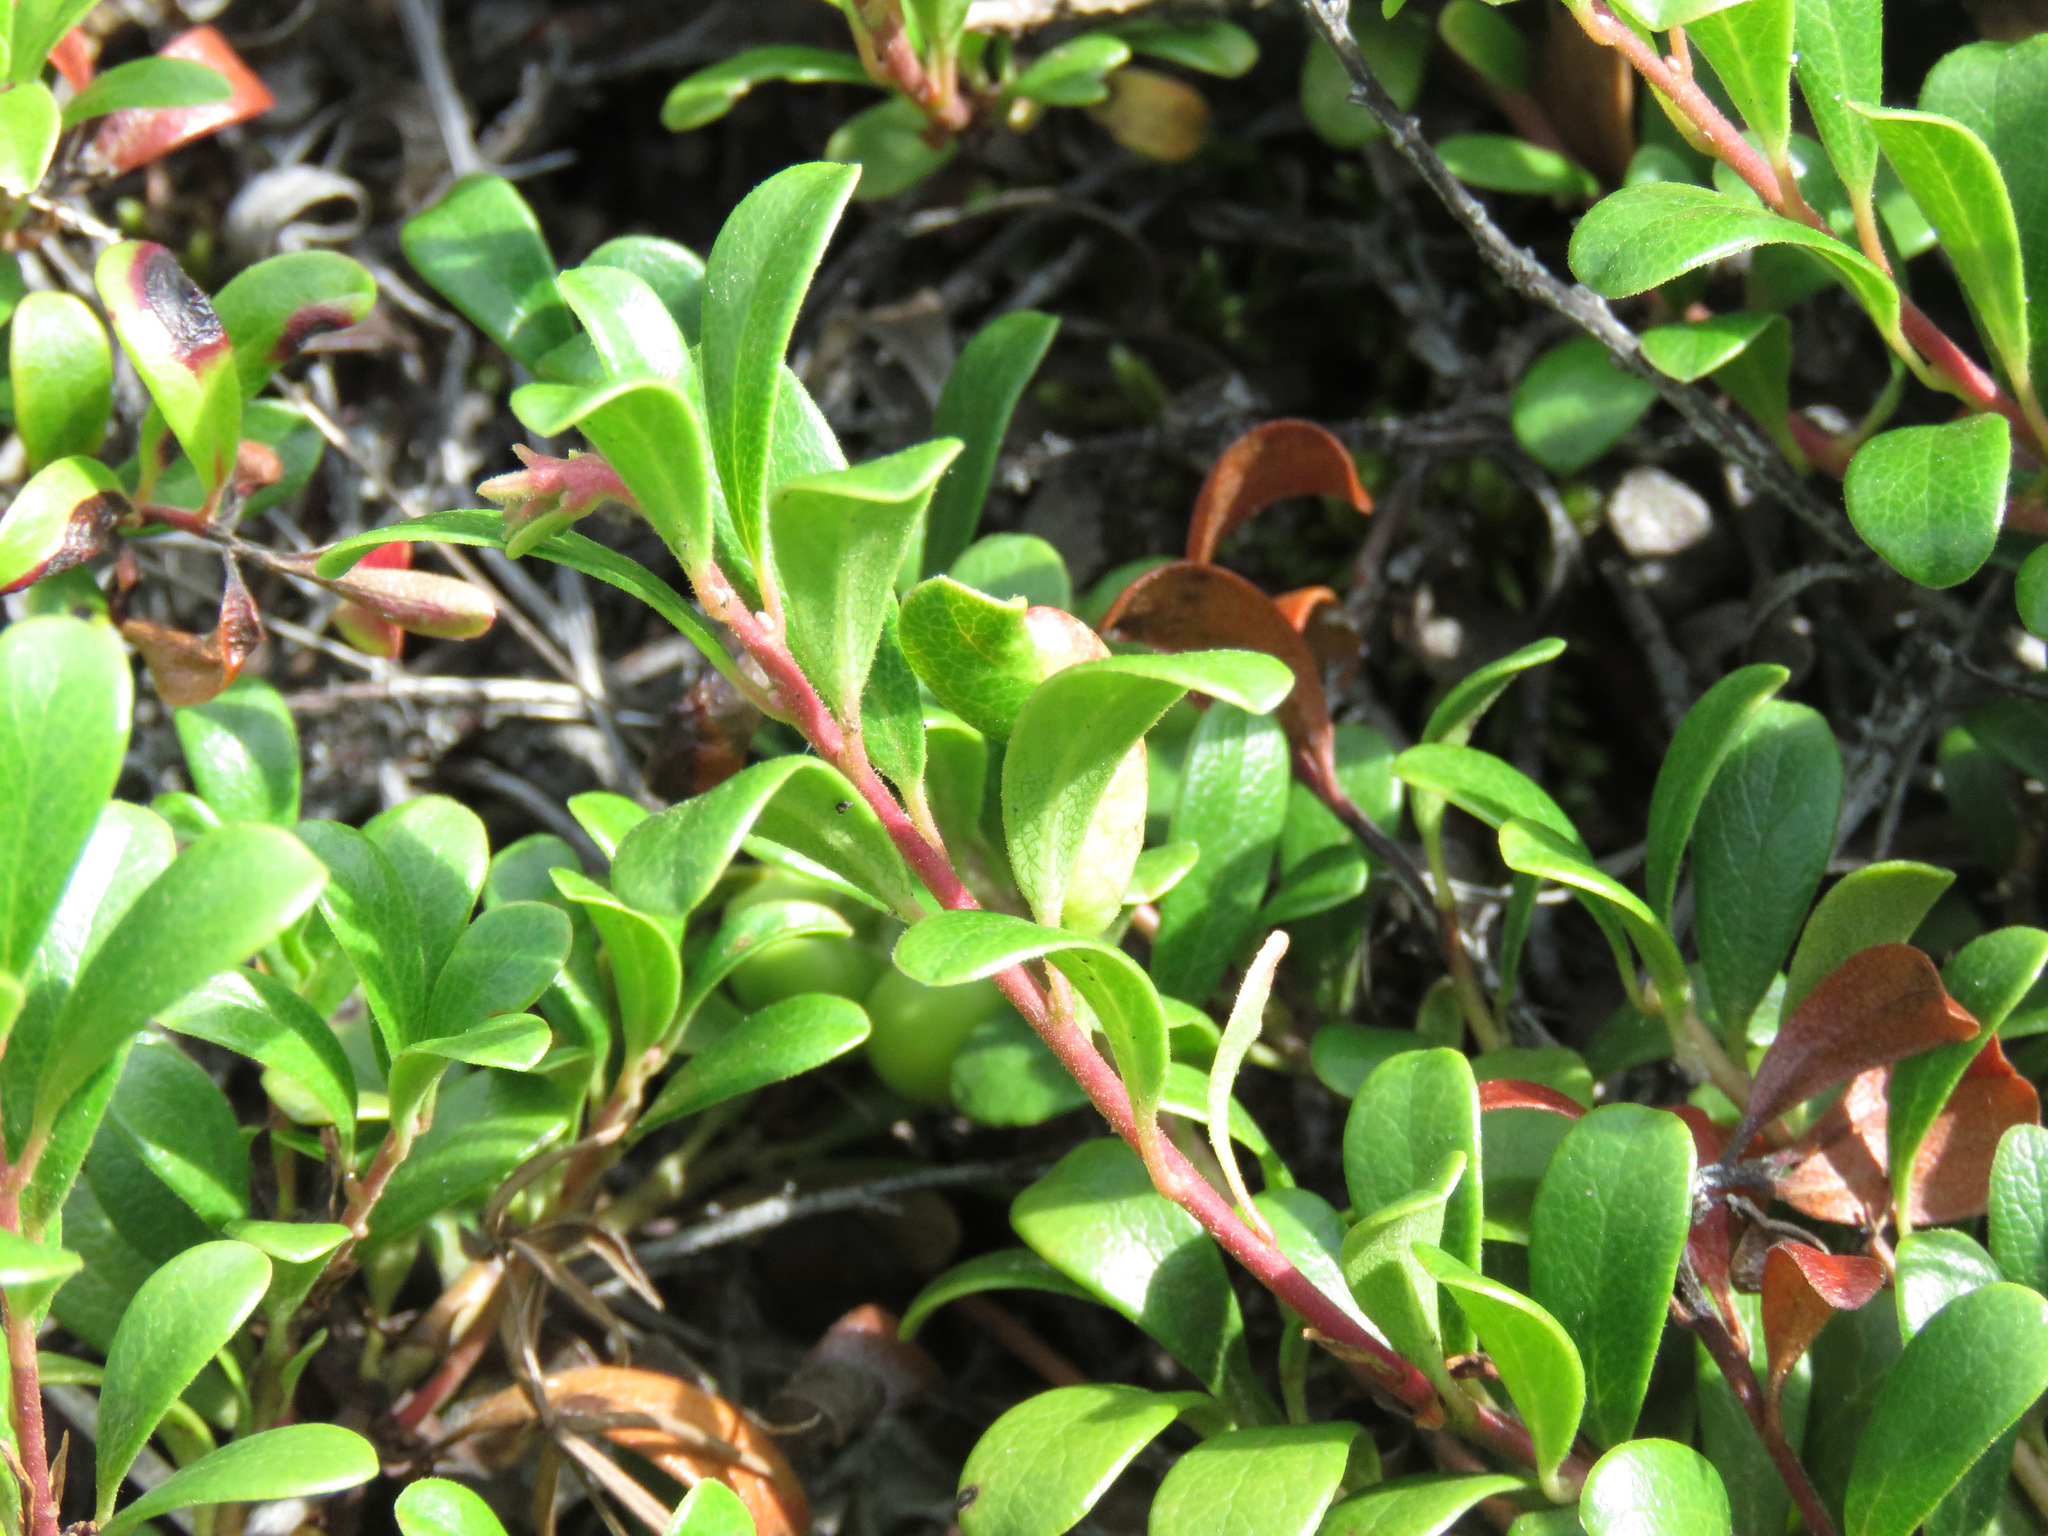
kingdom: Plantae
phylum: Tracheophyta
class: Magnoliopsida
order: Ericales
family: Ericaceae
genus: Arctostaphylos
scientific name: Arctostaphylos uva-ursi
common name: Bearberry
